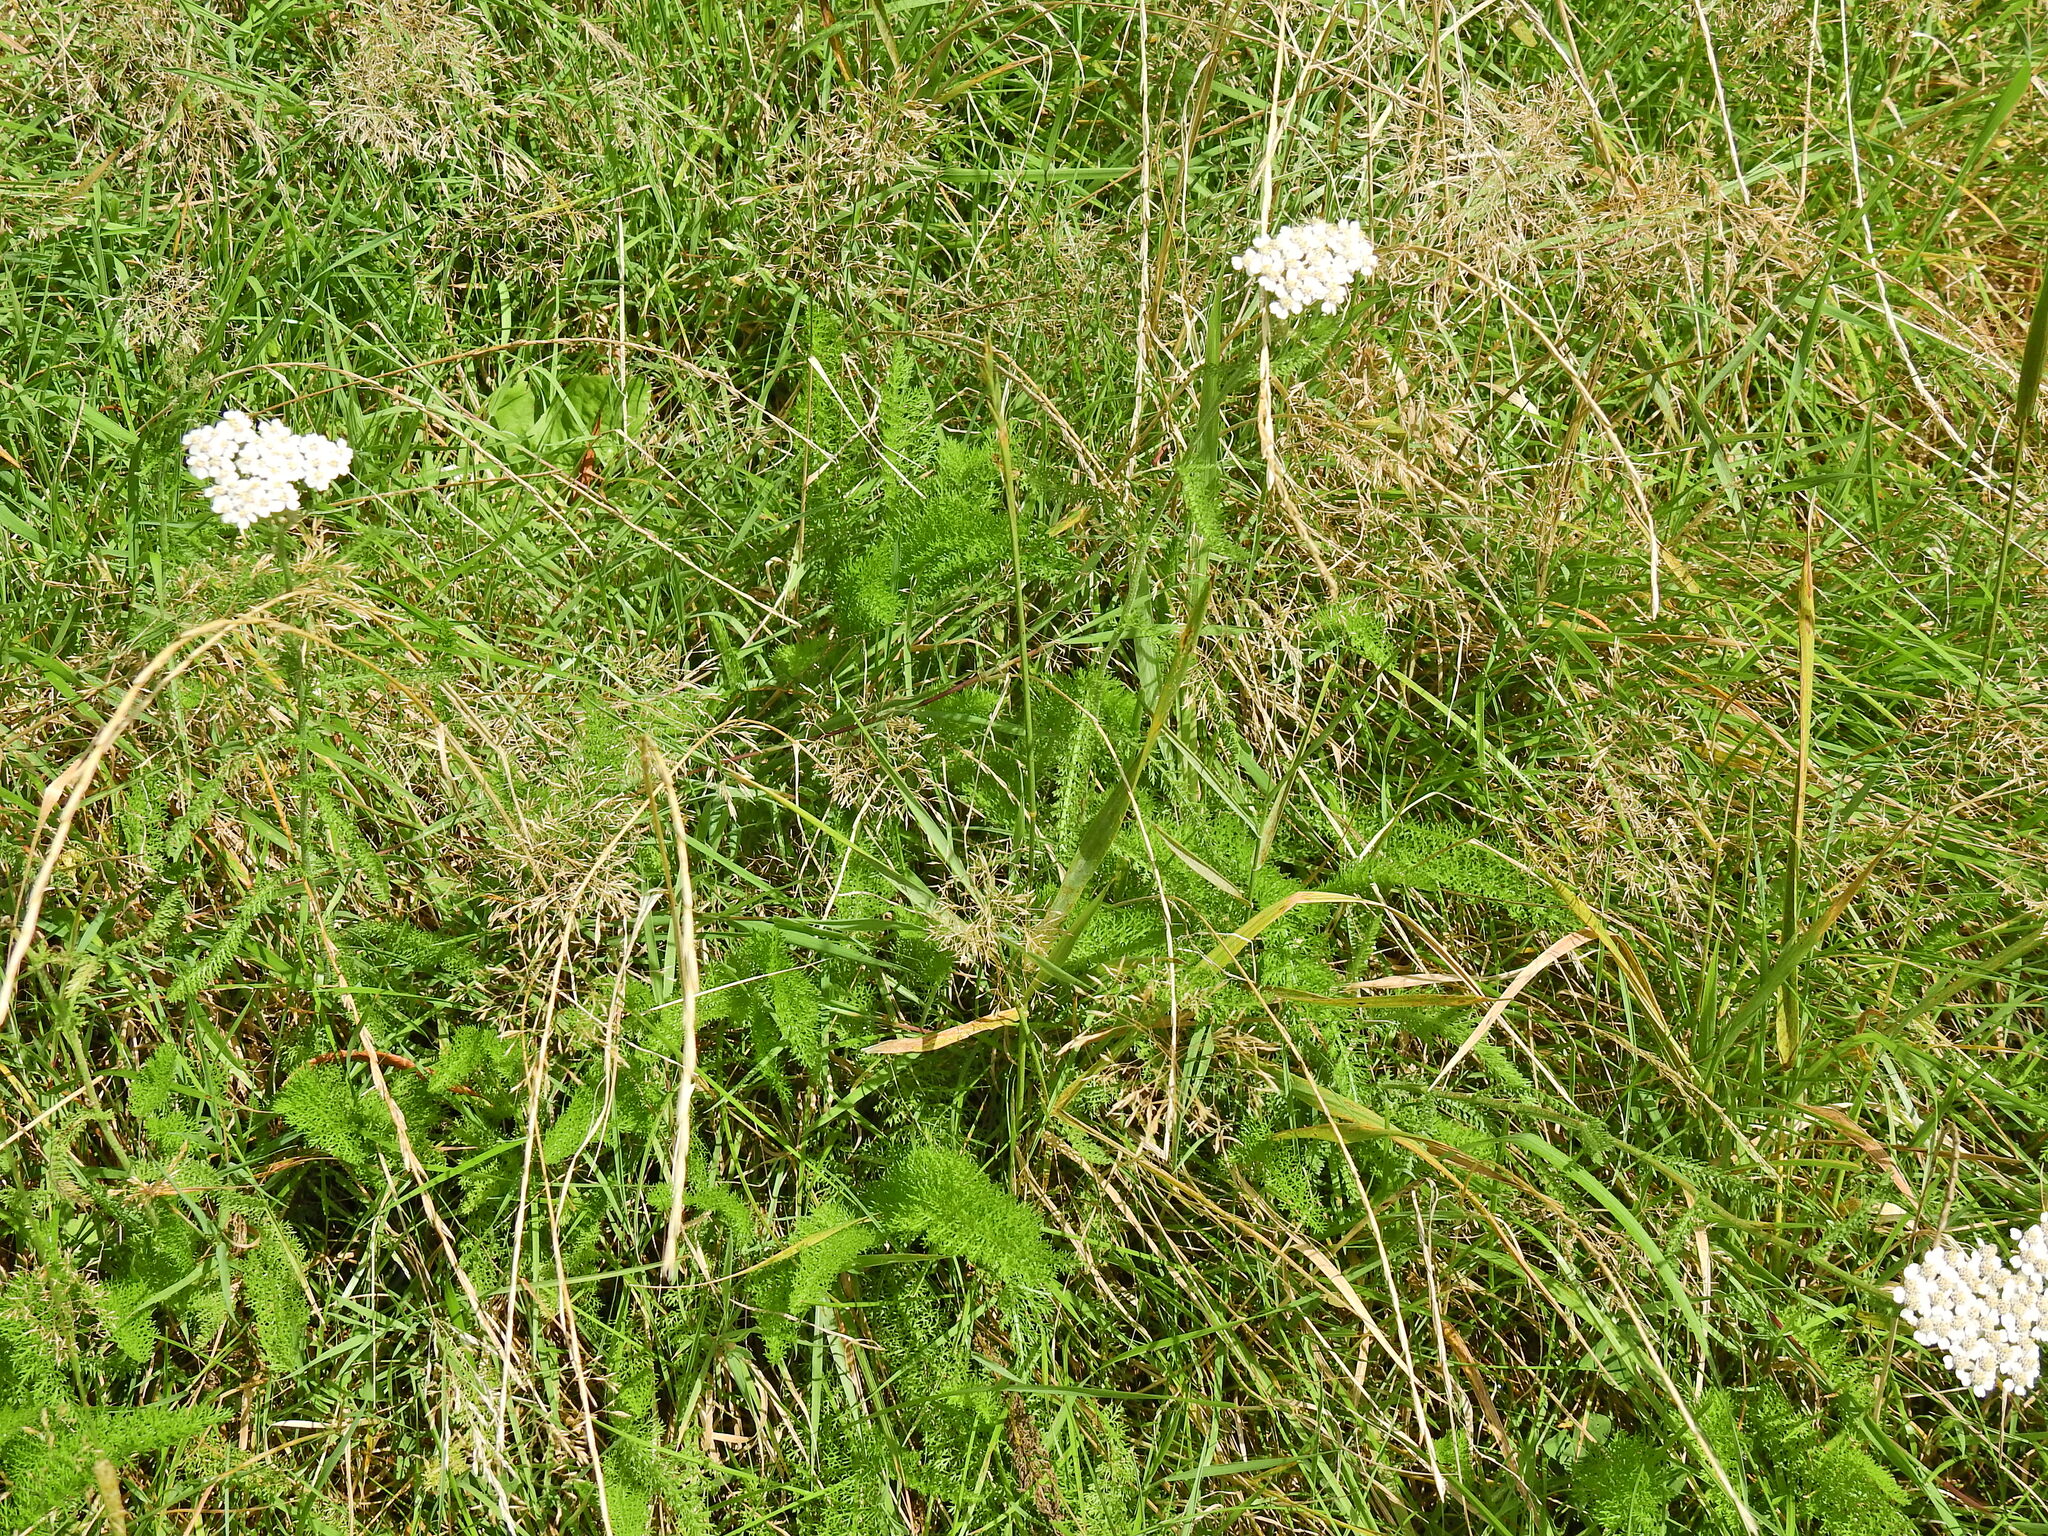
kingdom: Plantae
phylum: Tracheophyta
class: Magnoliopsida
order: Asterales
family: Asteraceae
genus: Achillea
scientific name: Achillea millefolium
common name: Yarrow
